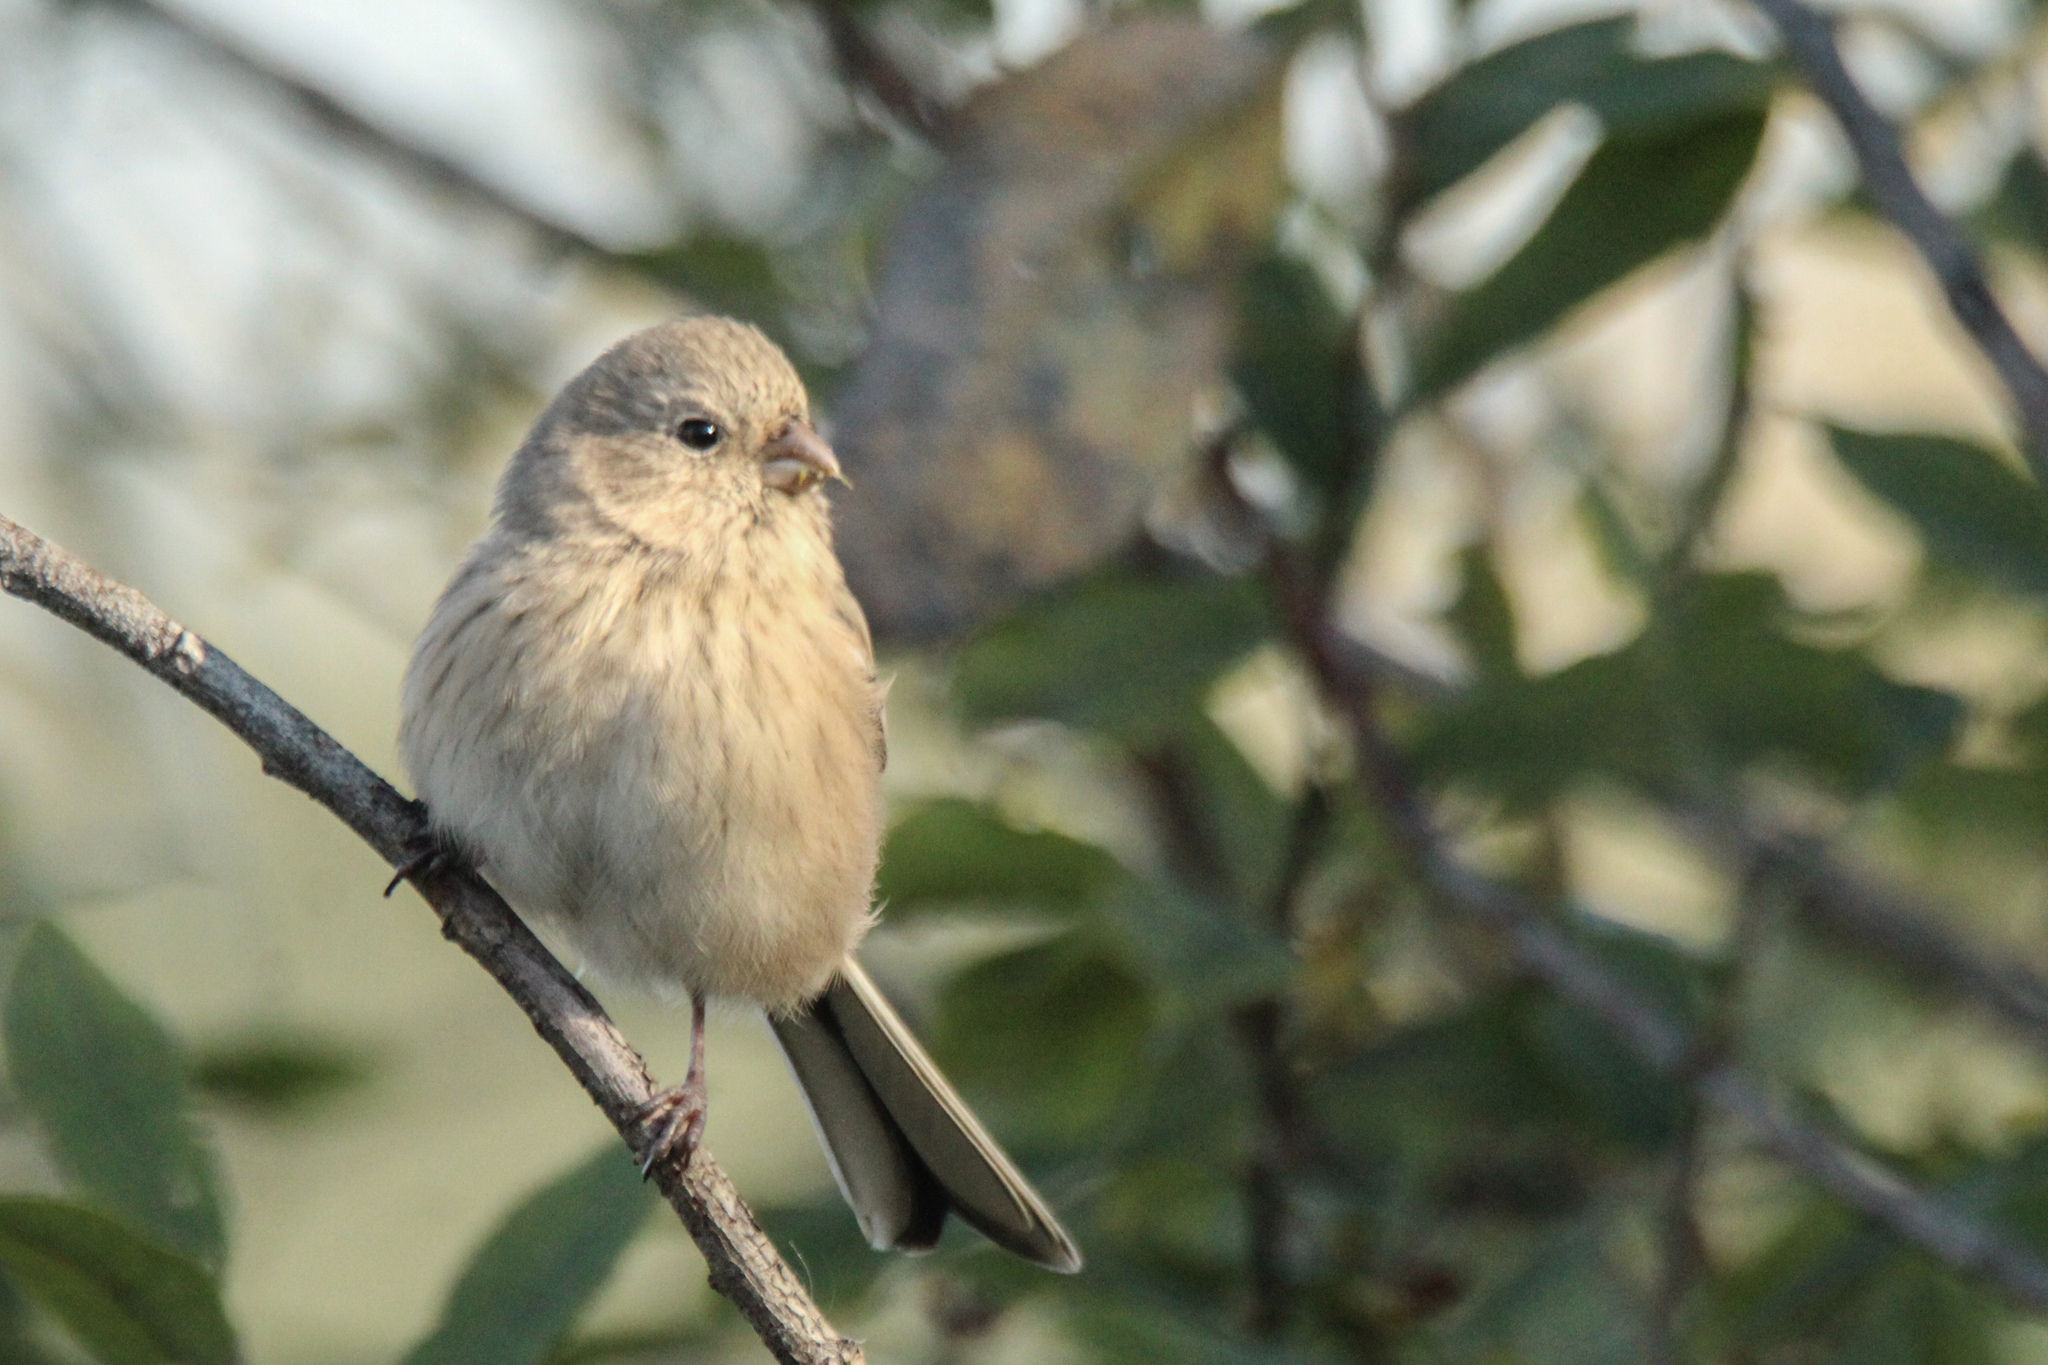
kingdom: Animalia
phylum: Chordata
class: Aves
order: Passeriformes
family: Fringillidae
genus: Carpodacus
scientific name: Carpodacus sibiricus
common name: Long-tailed rosefinch
